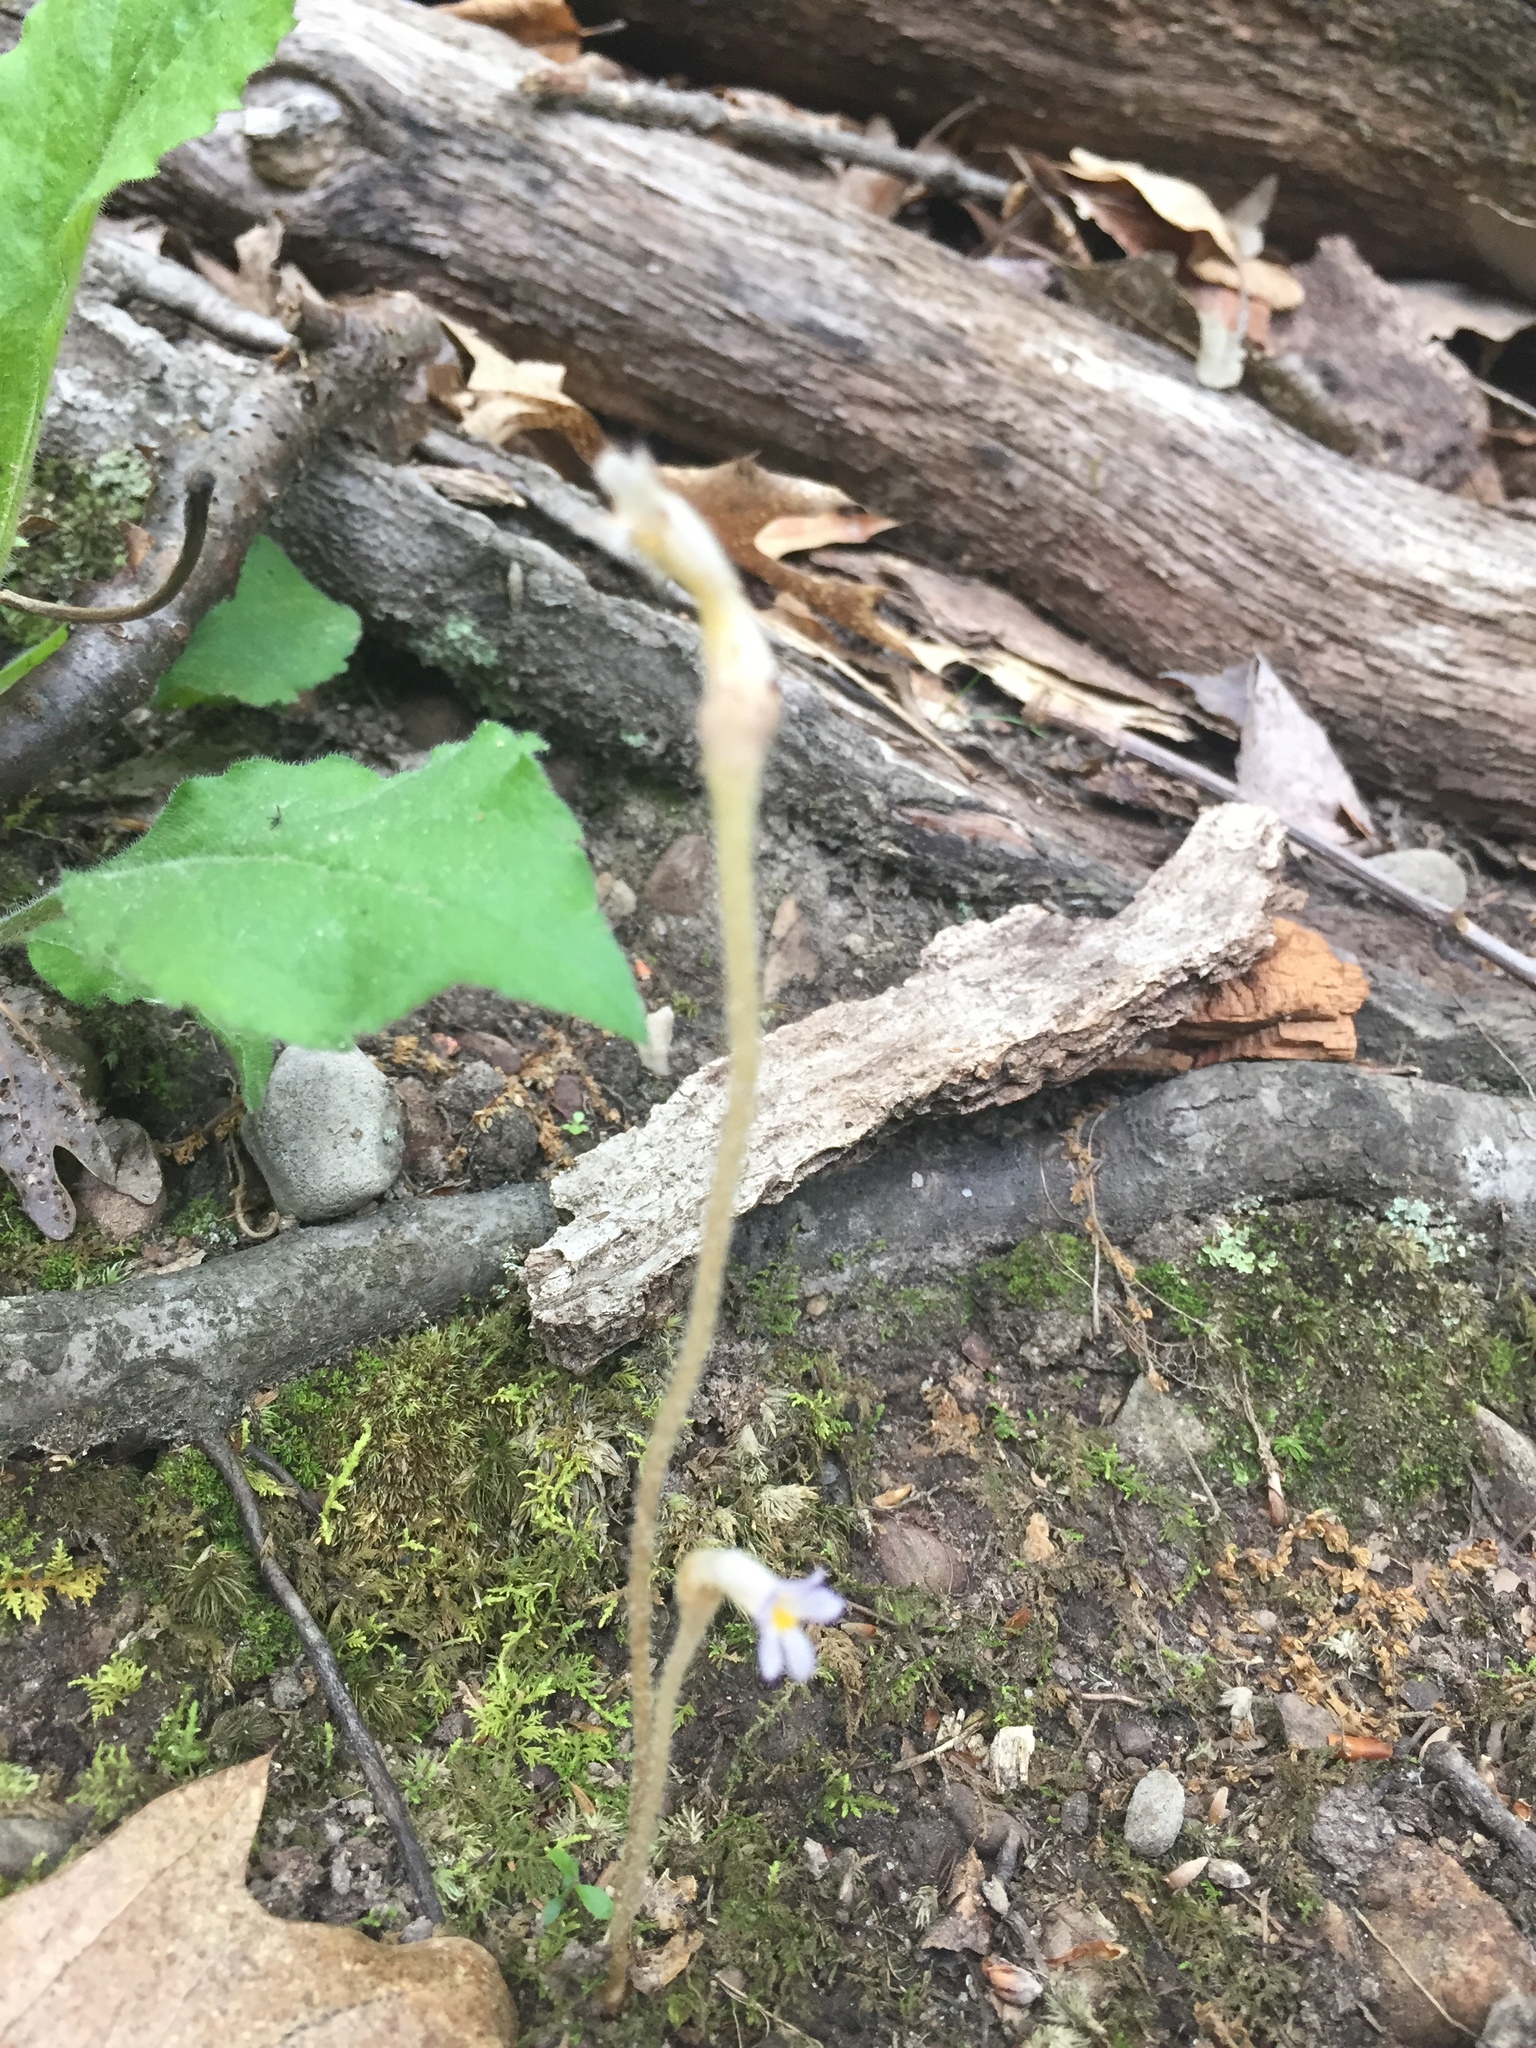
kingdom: Plantae
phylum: Tracheophyta
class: Magnoliopsida
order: Lamiales
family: Orobanchaceae
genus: Aphyllon
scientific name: Aphyllon uniflorum
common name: One-flowered broomrape
